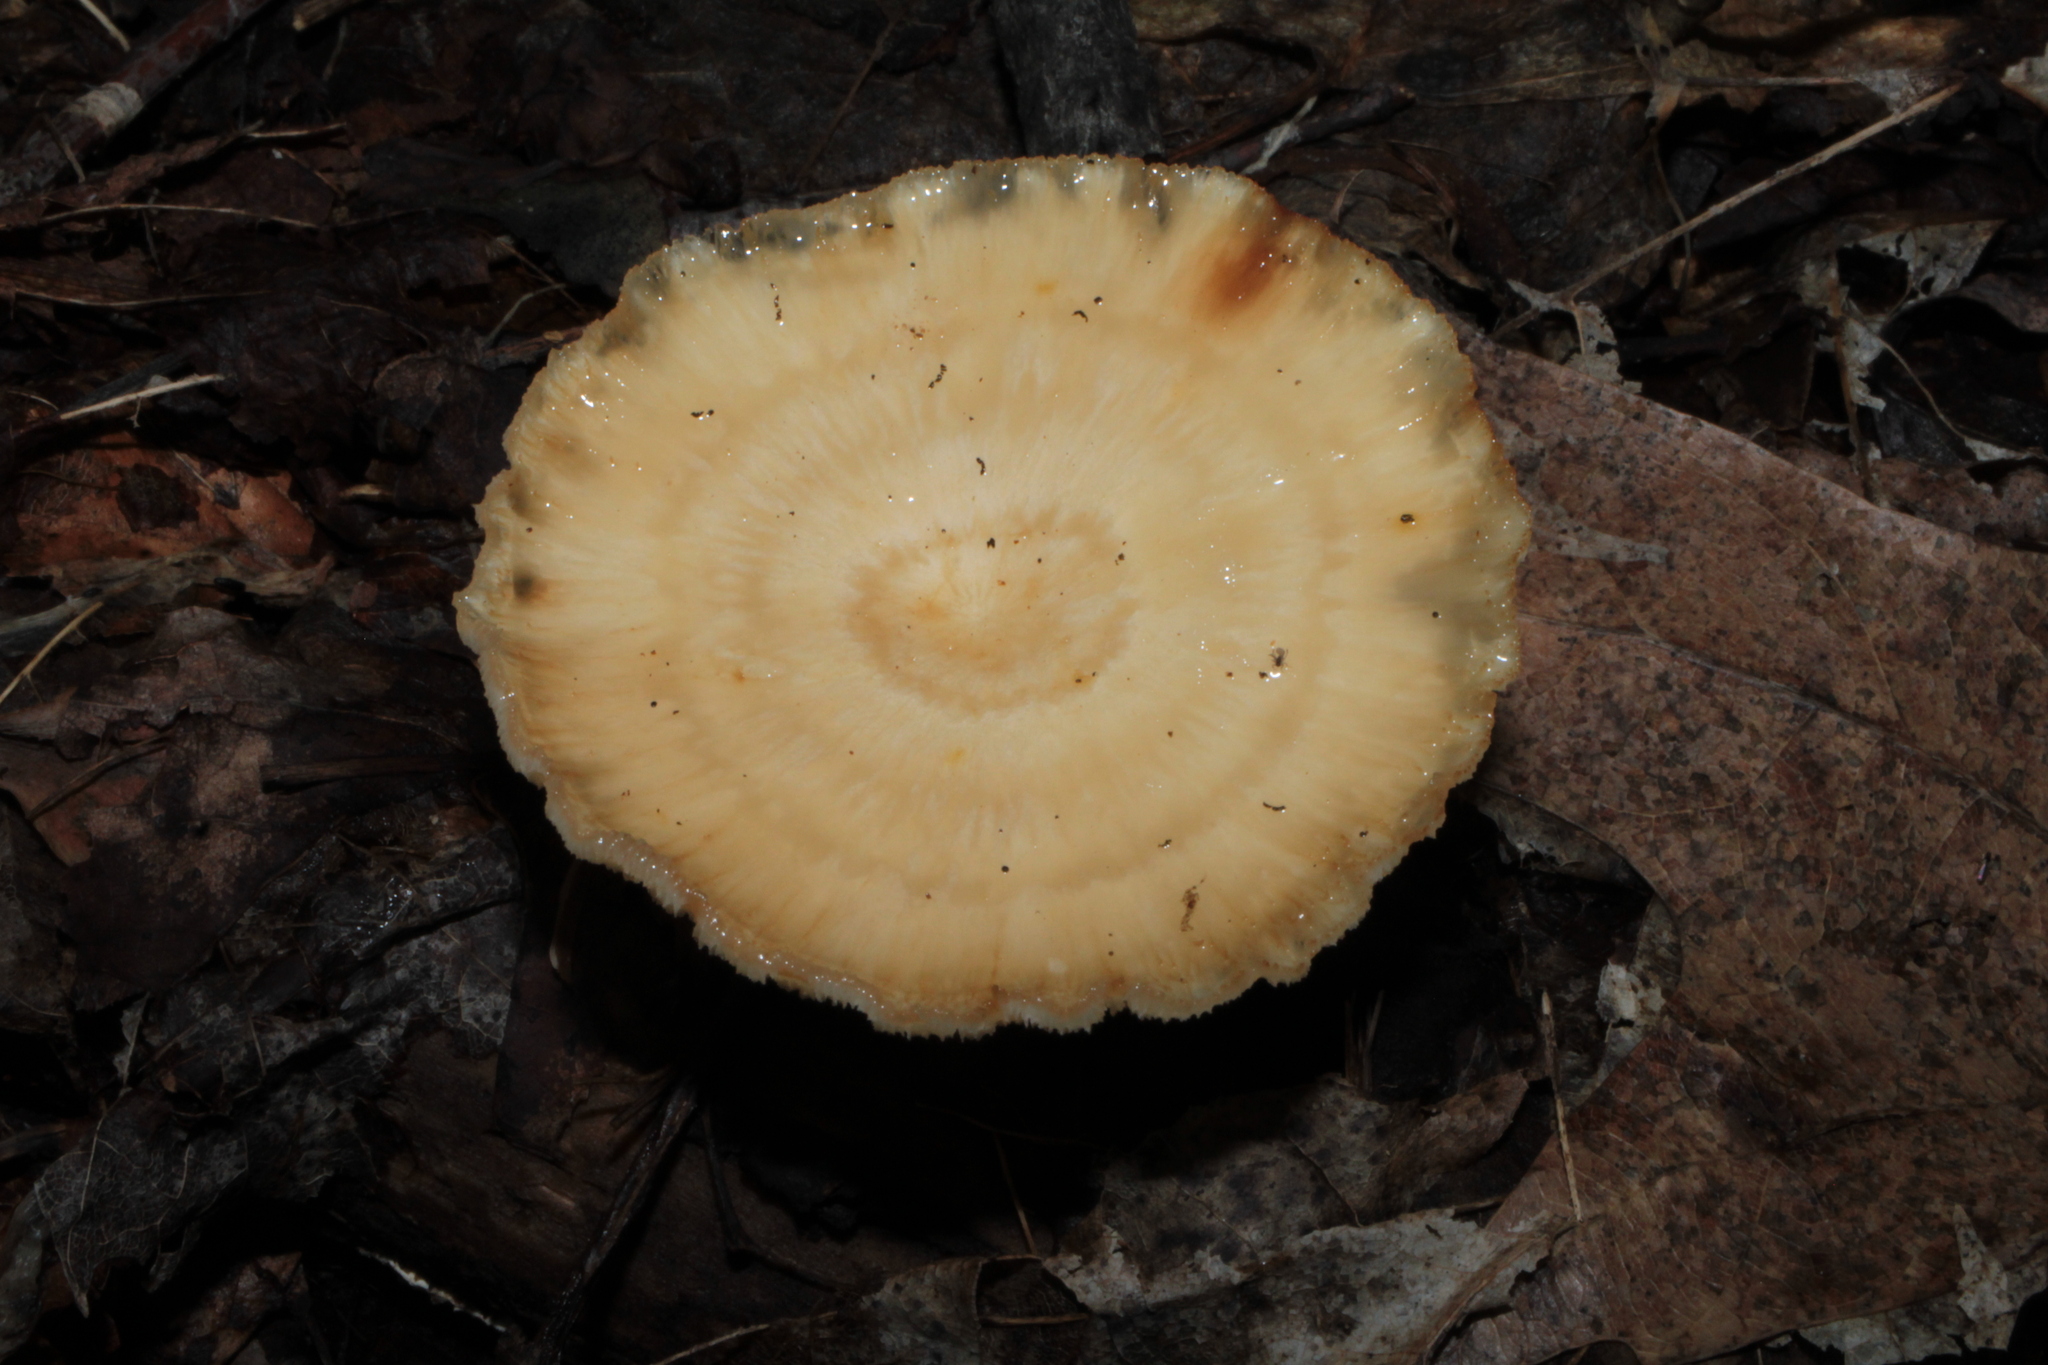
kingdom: Fungi
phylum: Basidiomycota
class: Agaricomycetes
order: Polyporales
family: Polyporaceae
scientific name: Polyporaceae
